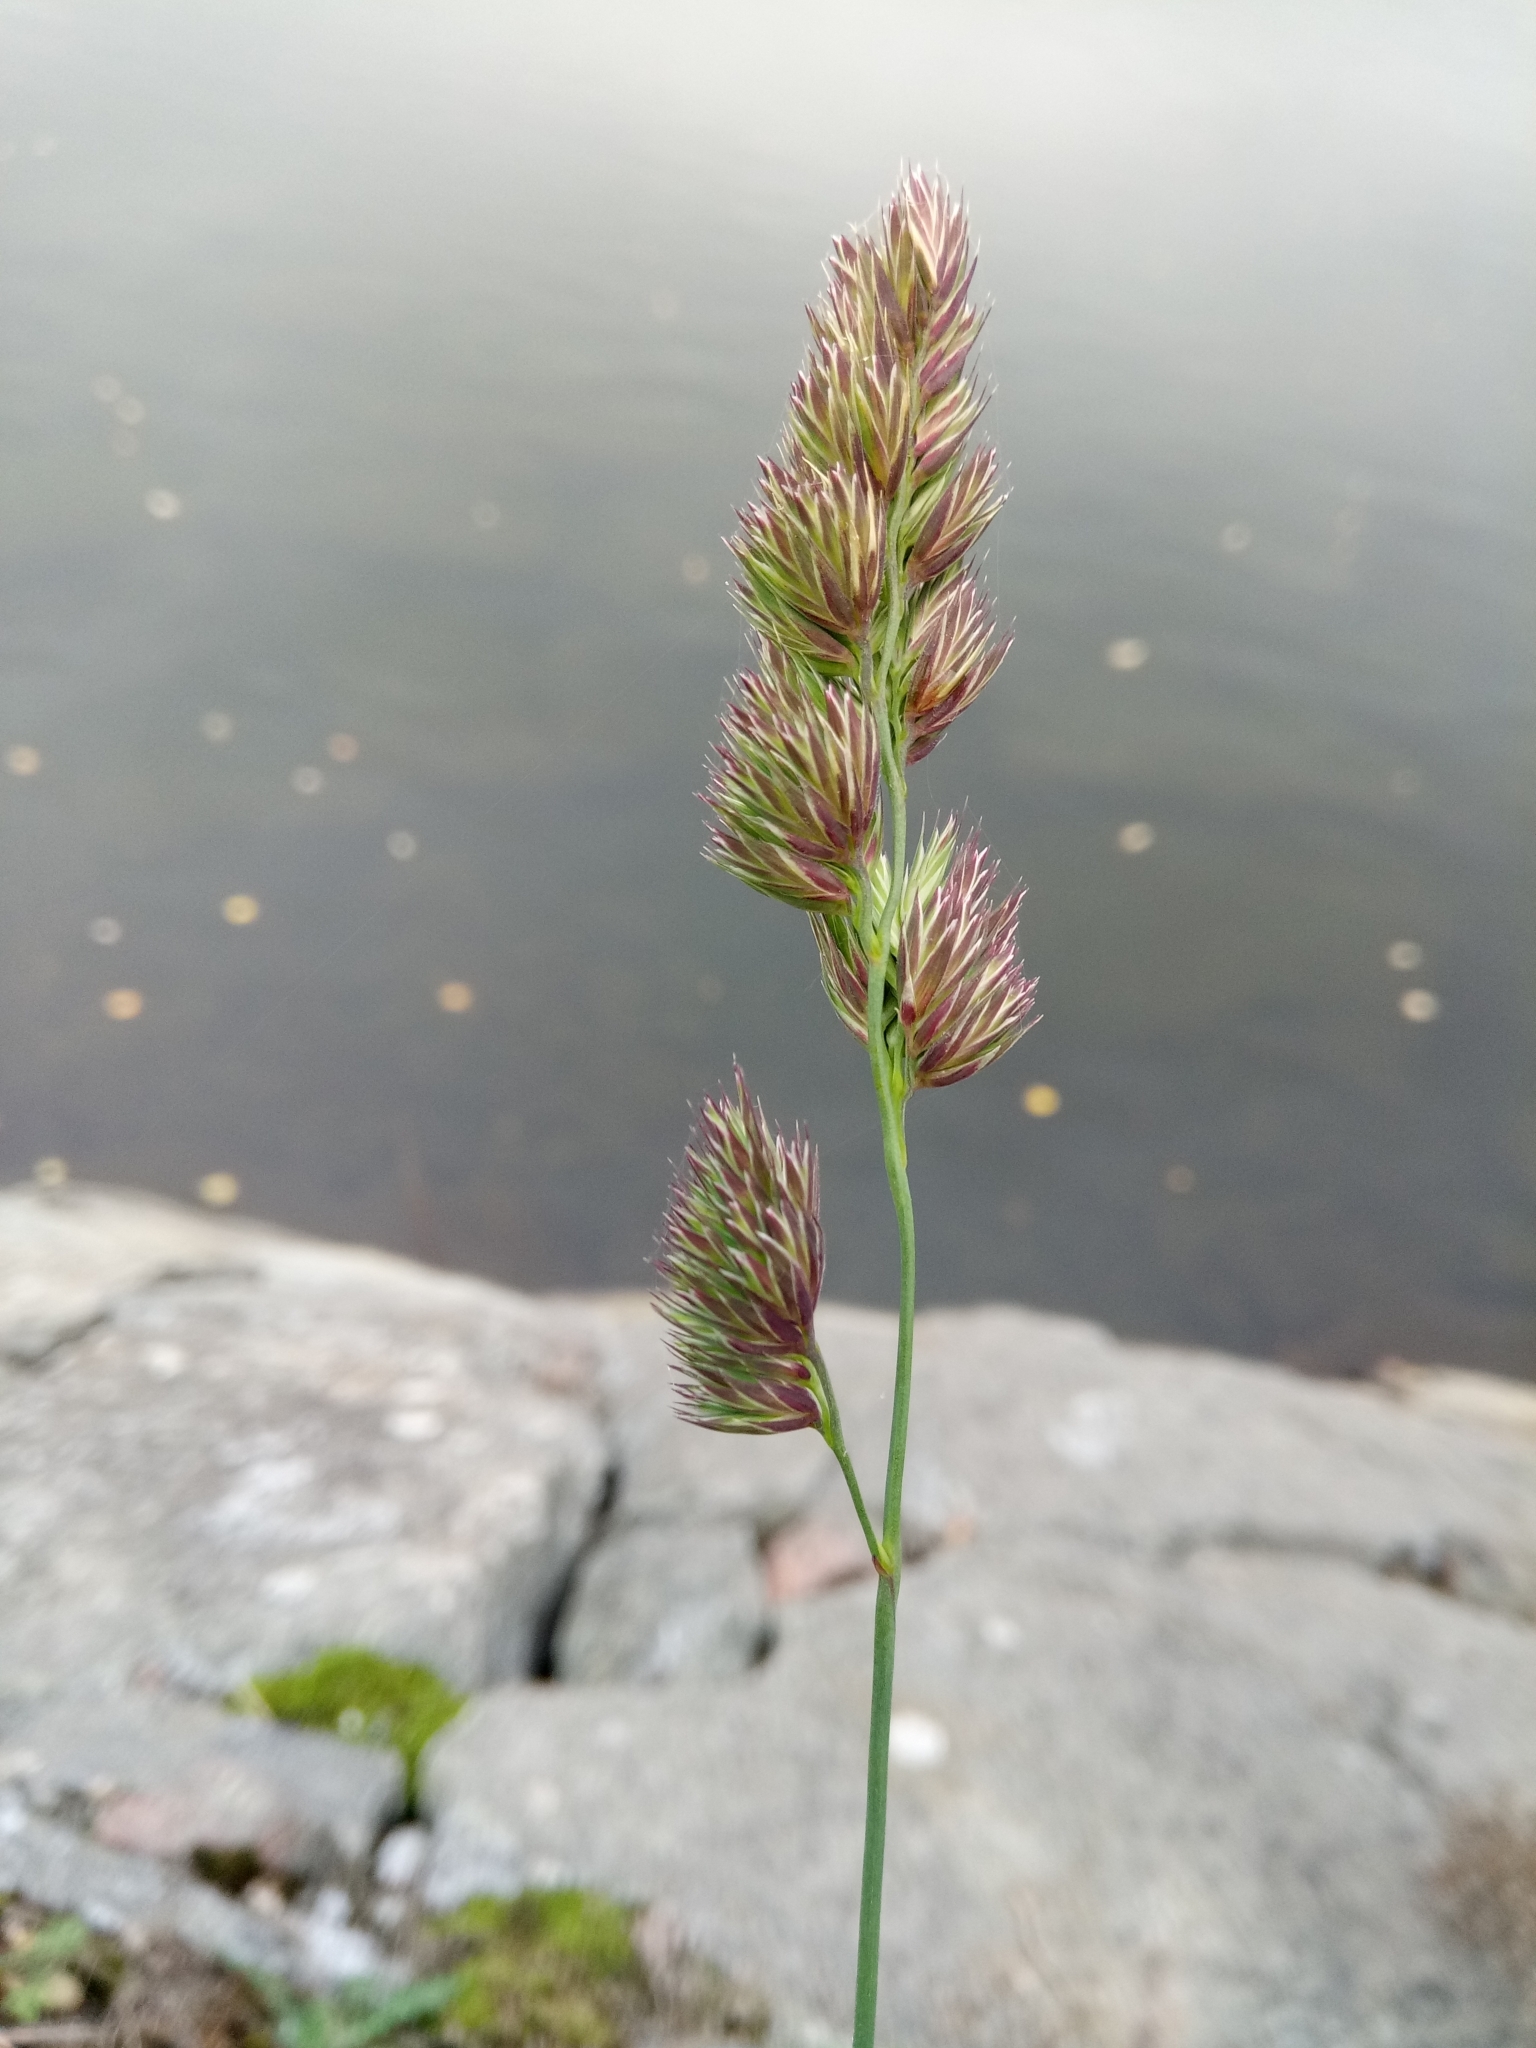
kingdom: Plantae
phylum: Tracheophyta
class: Liliopsida
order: Poales
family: Poaceae
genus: Dactylis
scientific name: Dactylis glomerata
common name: Orchardgrass
